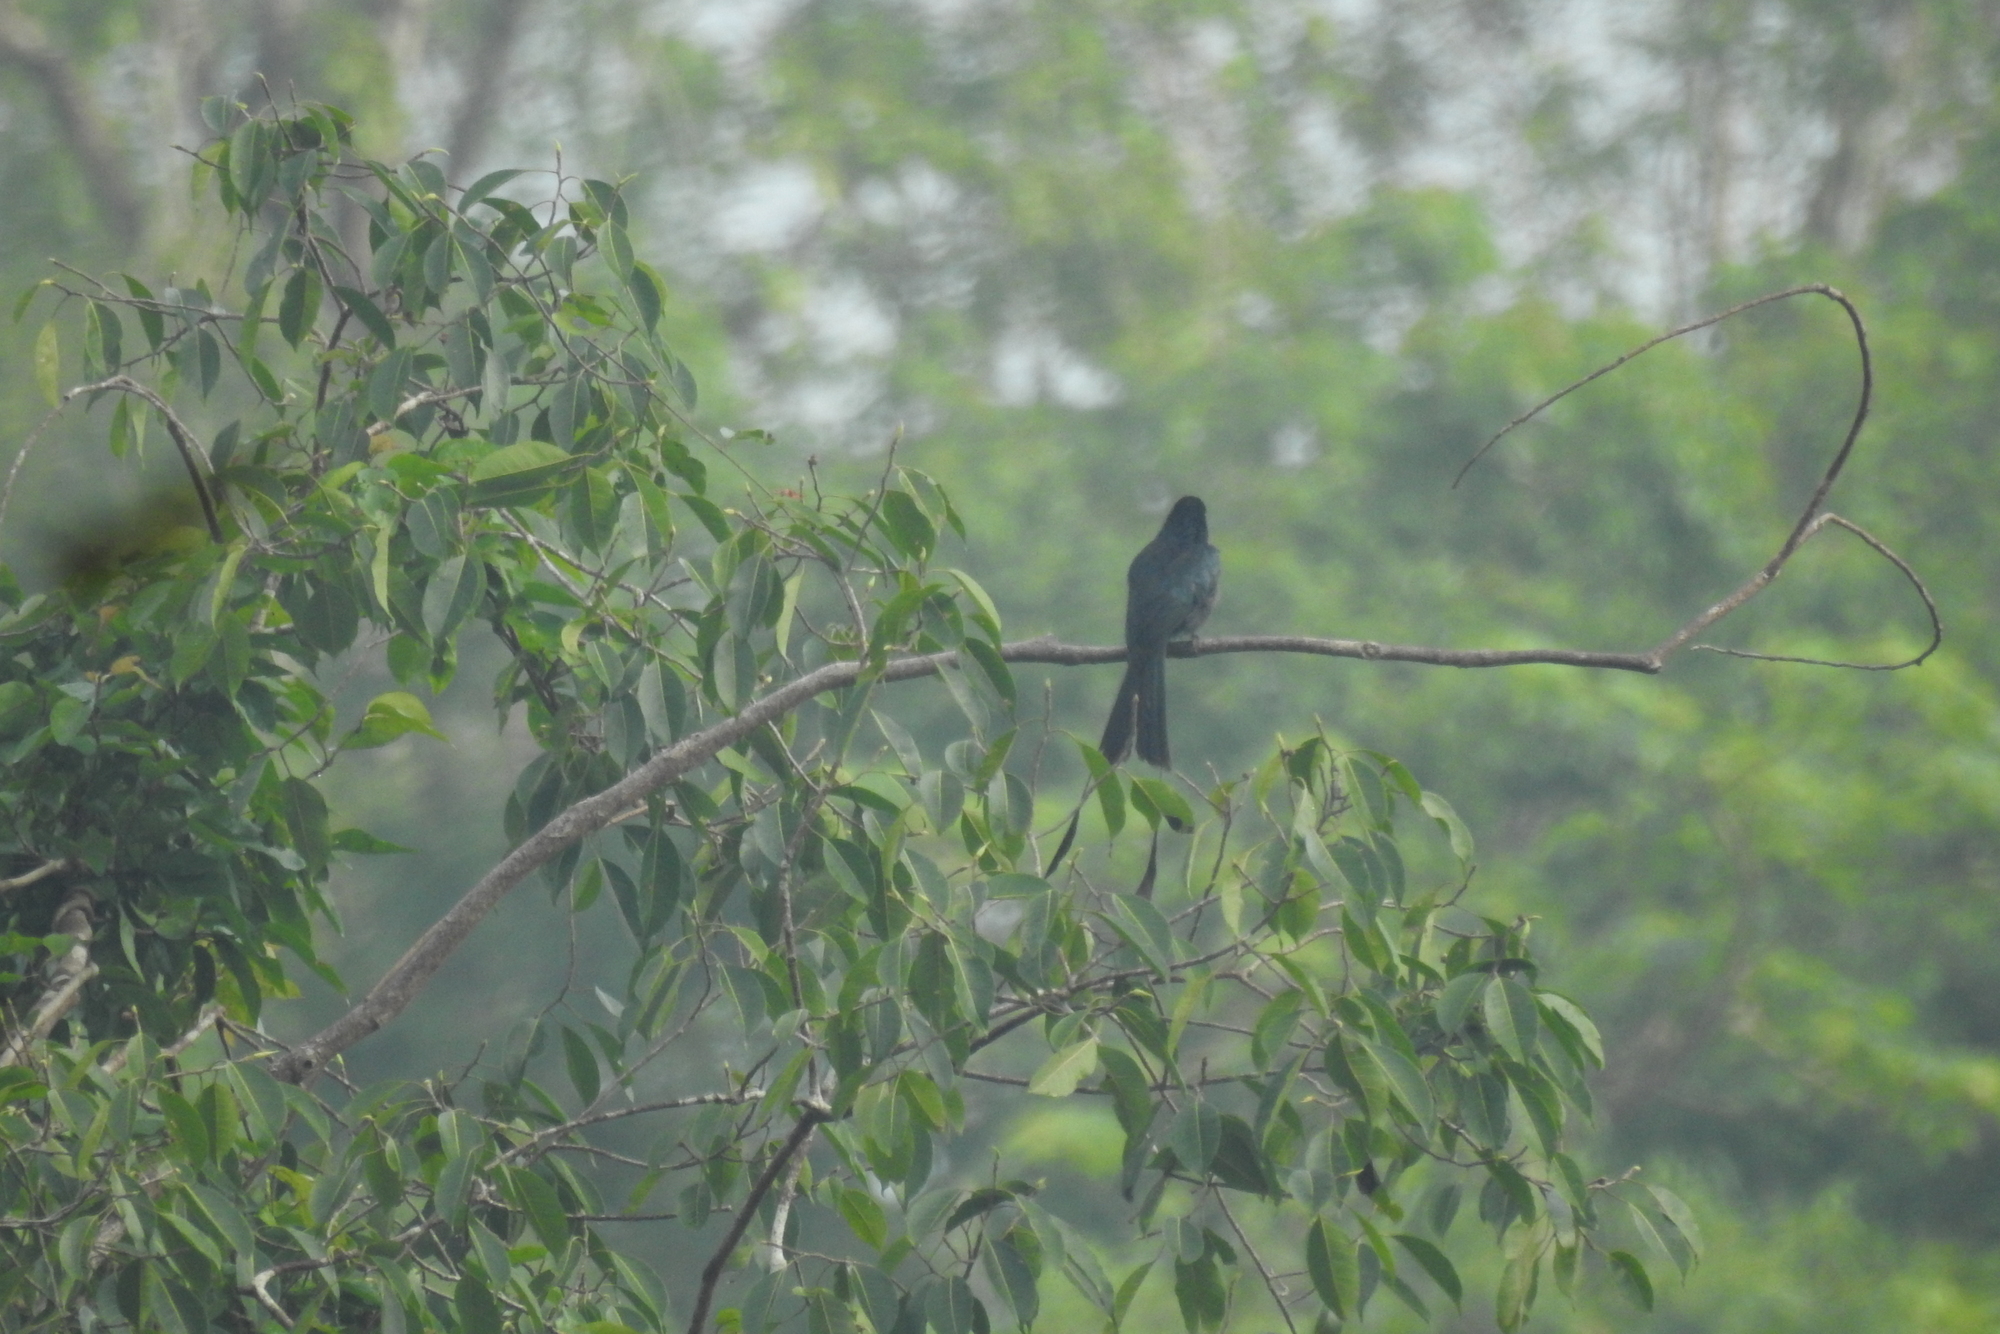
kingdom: Animalia
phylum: Chordata
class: Aves
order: Passeriformes
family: Dicruridae
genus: Dicrurus
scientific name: Dicrurus paradiseus
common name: Greater racket-tailed drongo
